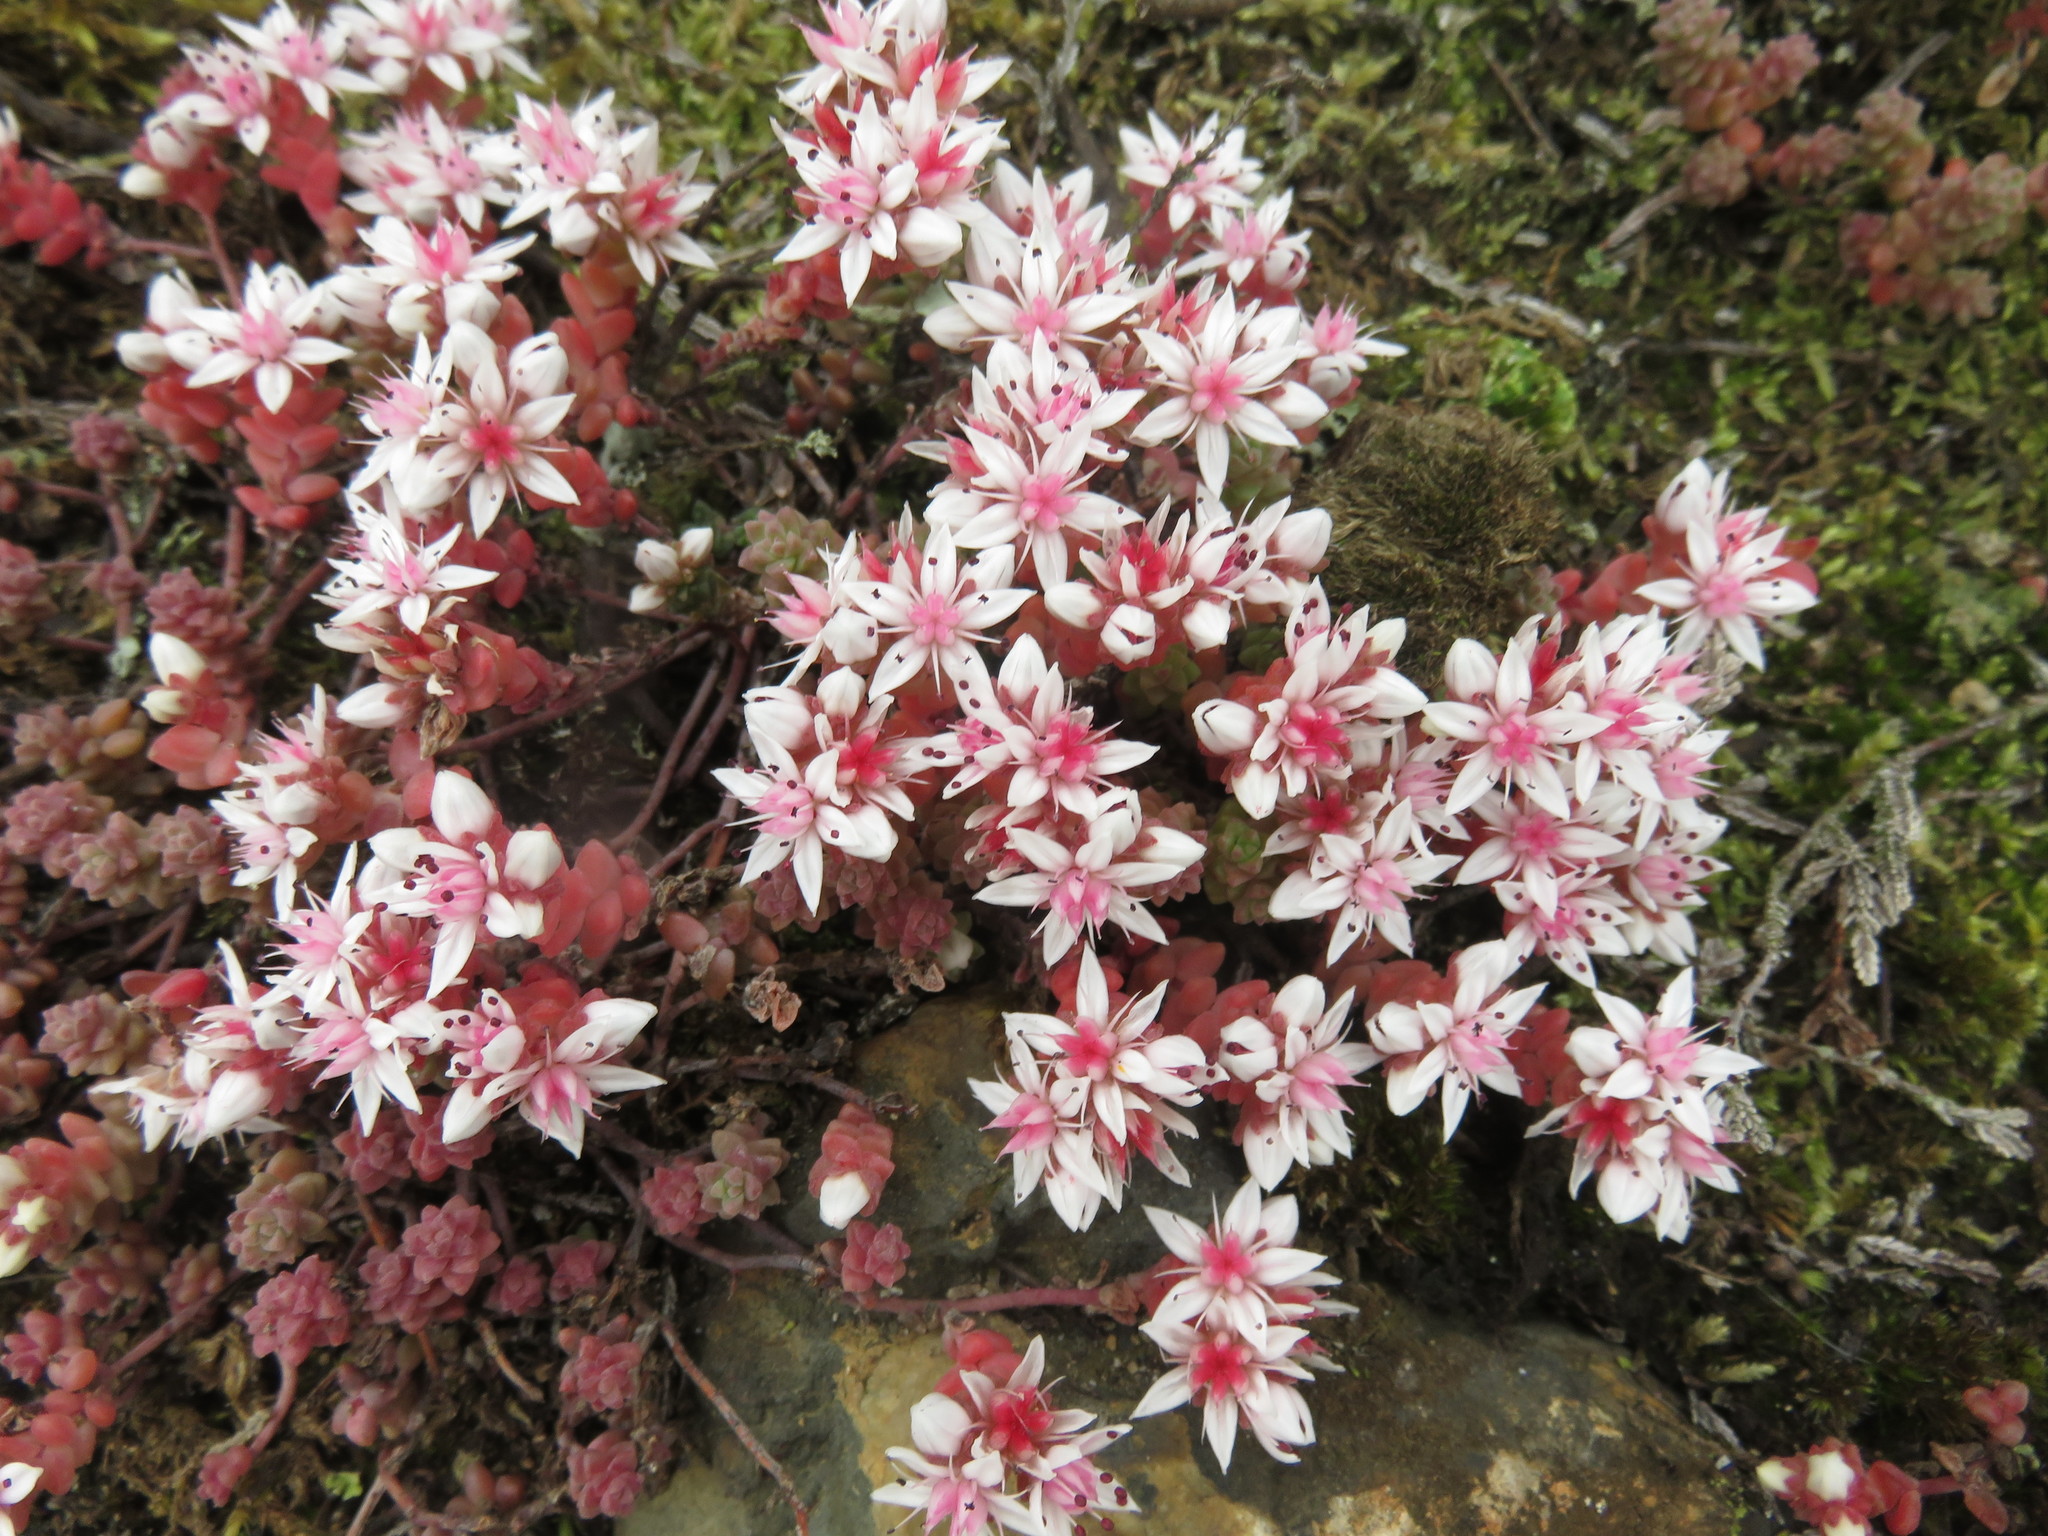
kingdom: Plantae
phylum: Tracheophyta
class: Magnoliopsida
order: Saxifragales
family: Crassulaceae
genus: Sedum
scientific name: Sedum anglicum
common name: English stonecrop
